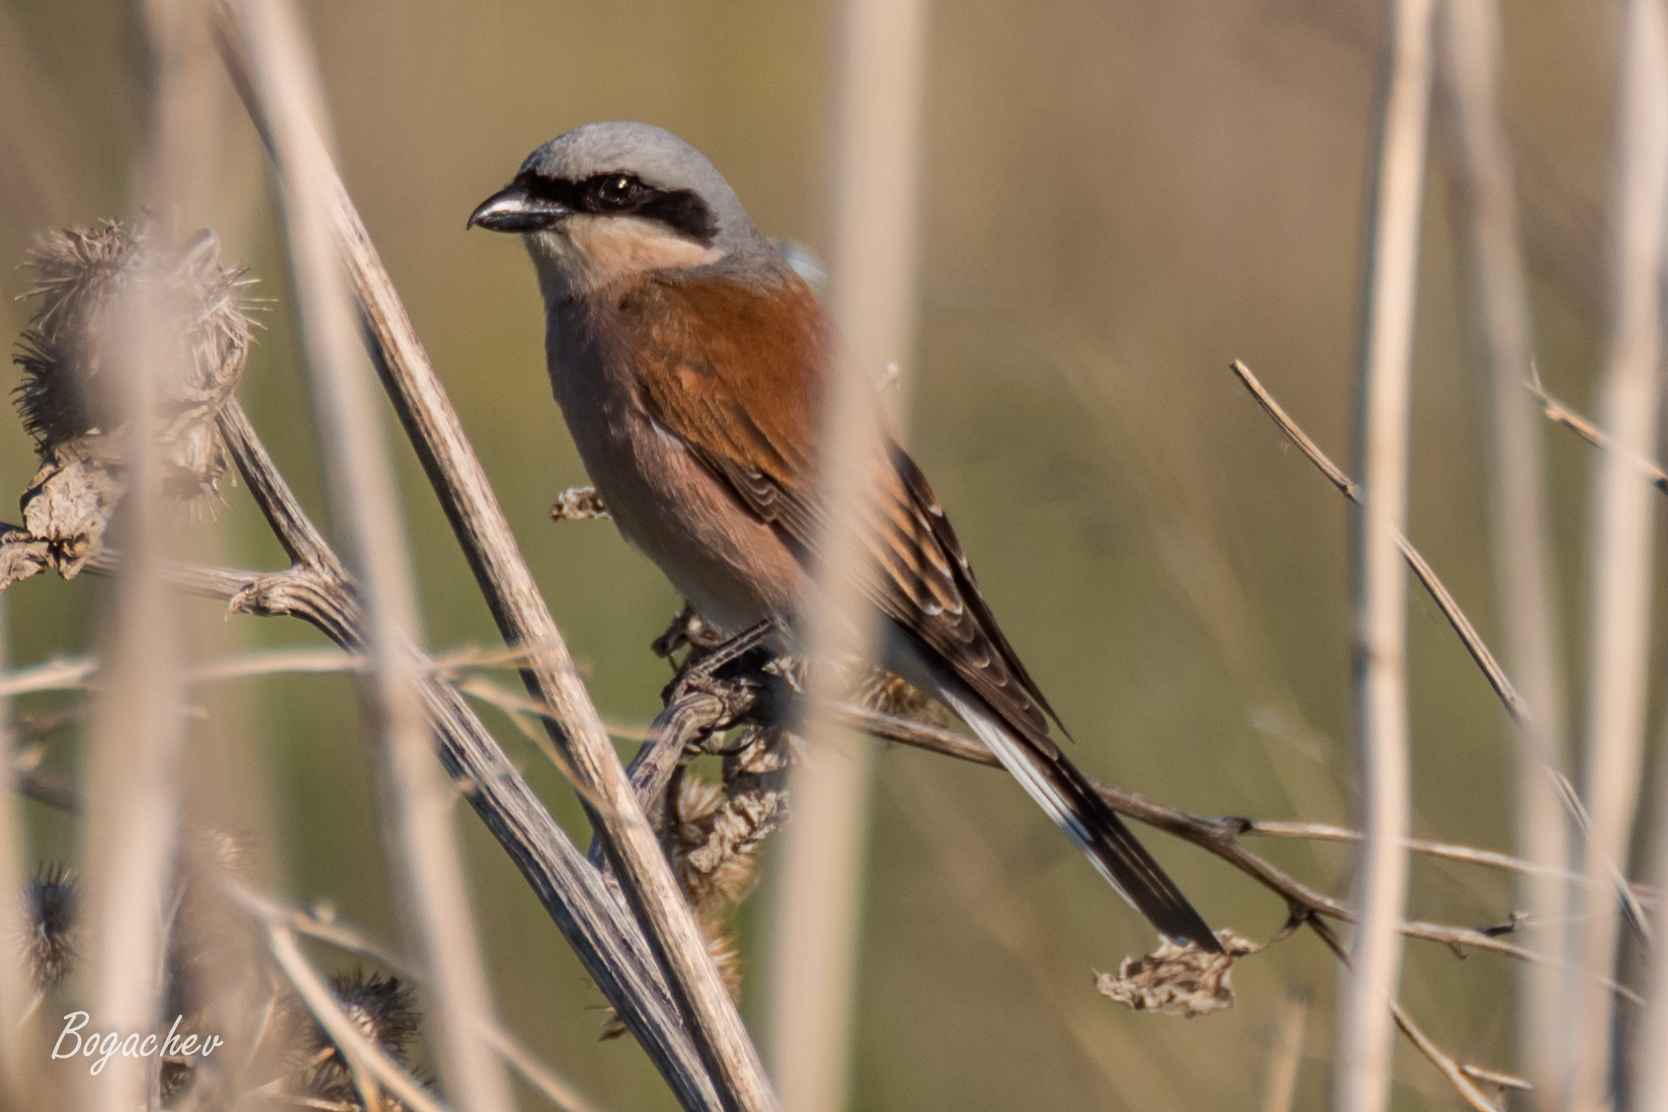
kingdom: Animalia
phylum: Chordata
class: Aves
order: Passeriformes
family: Laniidae
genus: Lanius
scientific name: Lanius collurio
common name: Red-backed shrike
